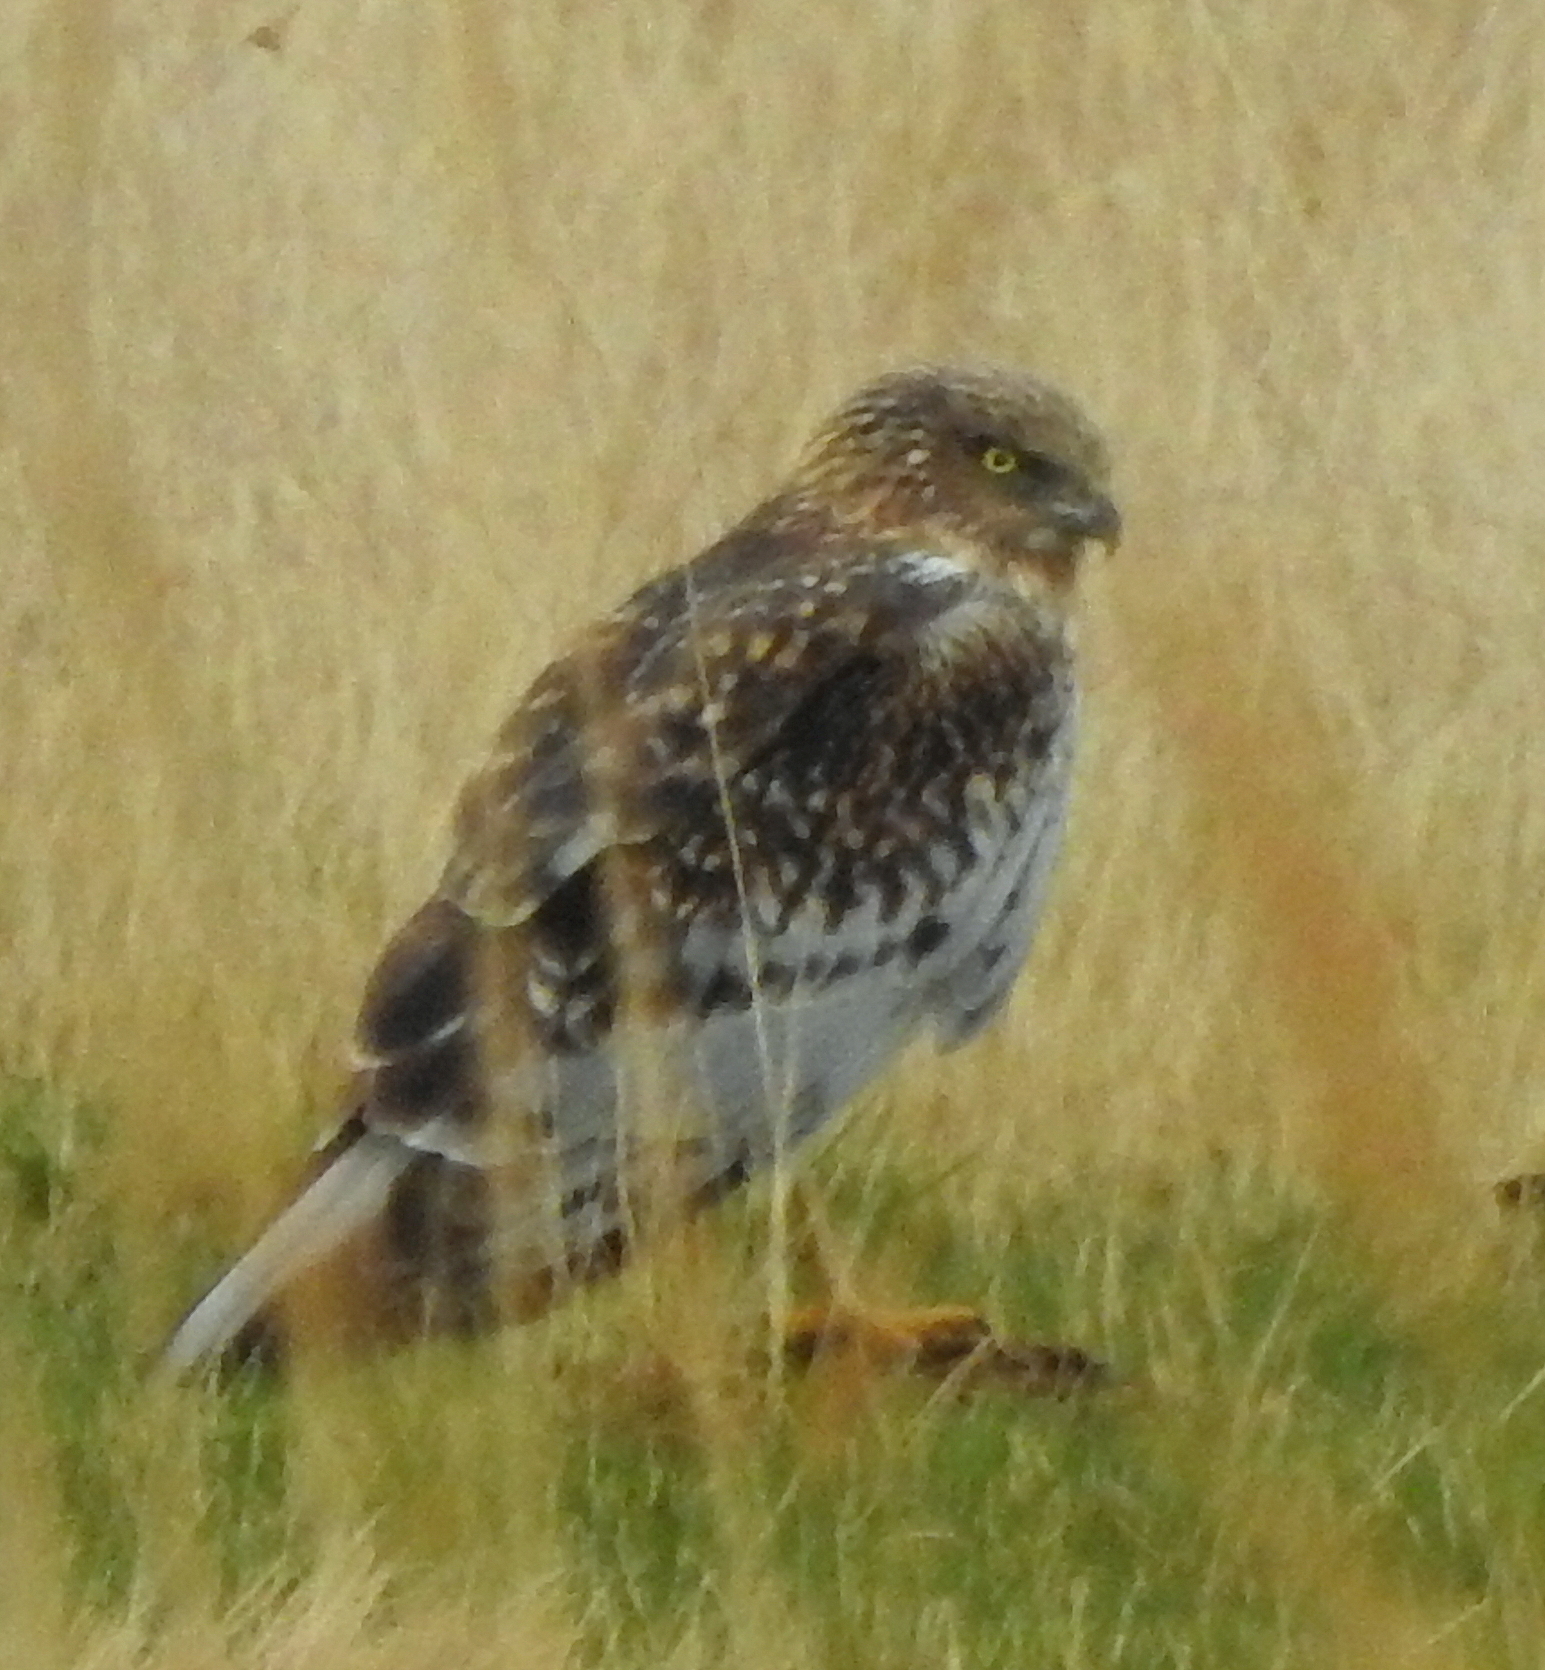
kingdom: Animalia
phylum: Chordata
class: Aves
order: Accipitriformes
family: Accipitridae
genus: Circus
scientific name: Circus spilonotus
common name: Eastern marsh-harrier
